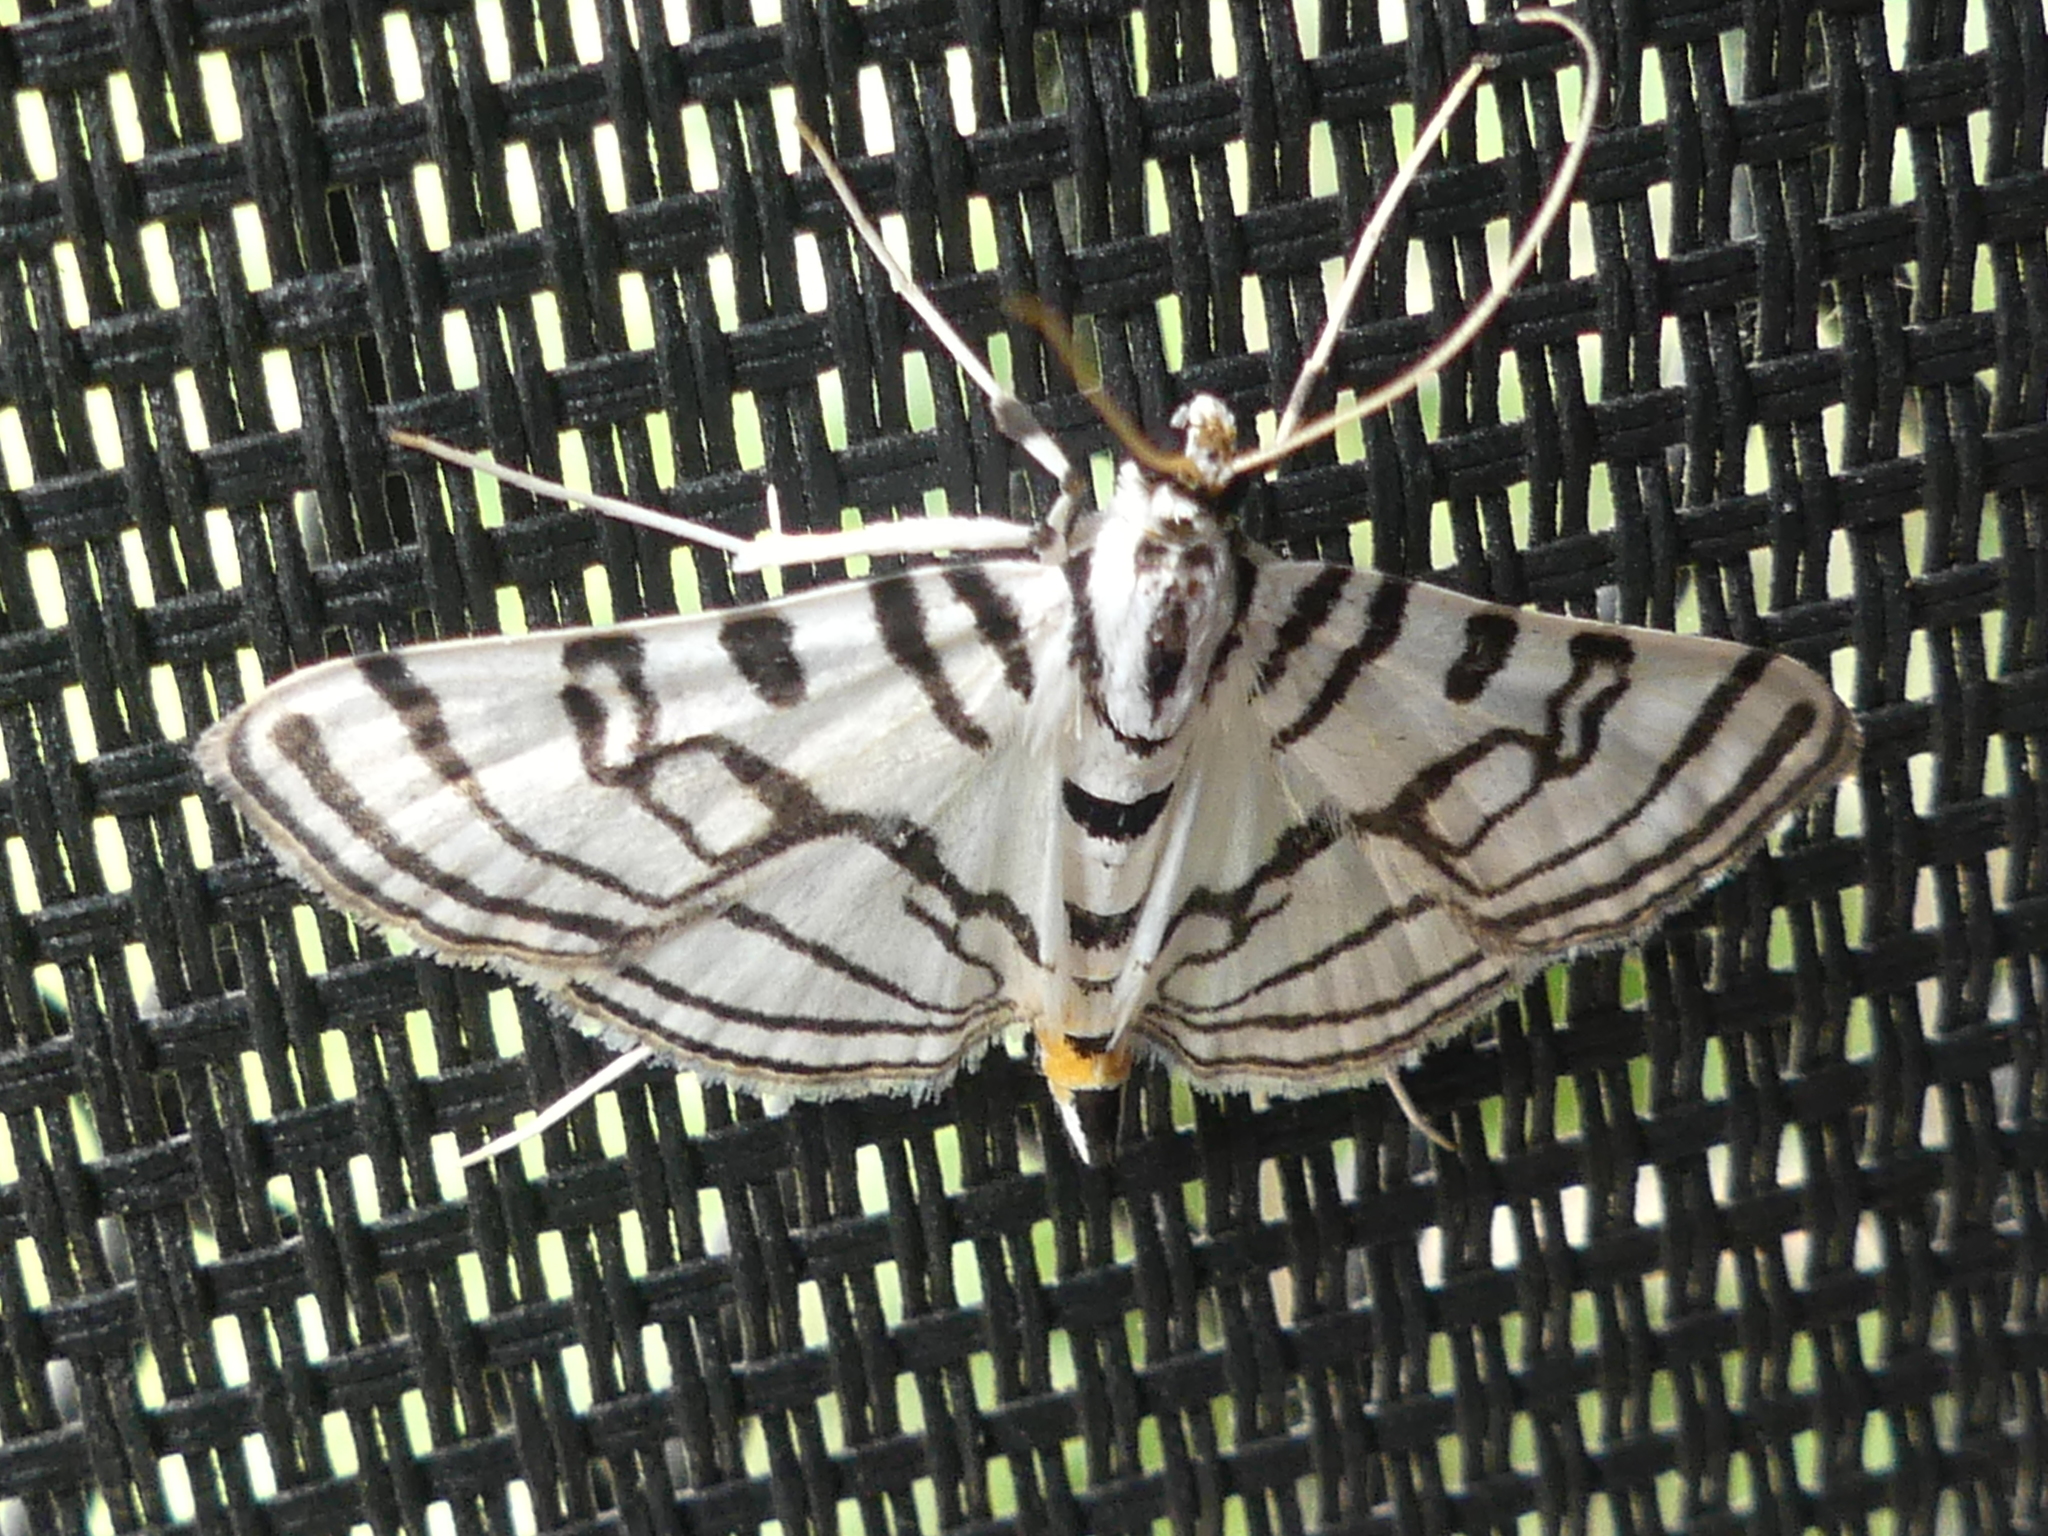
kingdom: Animalia
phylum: Arthropoda
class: Insecta
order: Lepidoptera
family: Crambidae
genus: Conchylodes
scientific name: Conchylodes ovulalis
